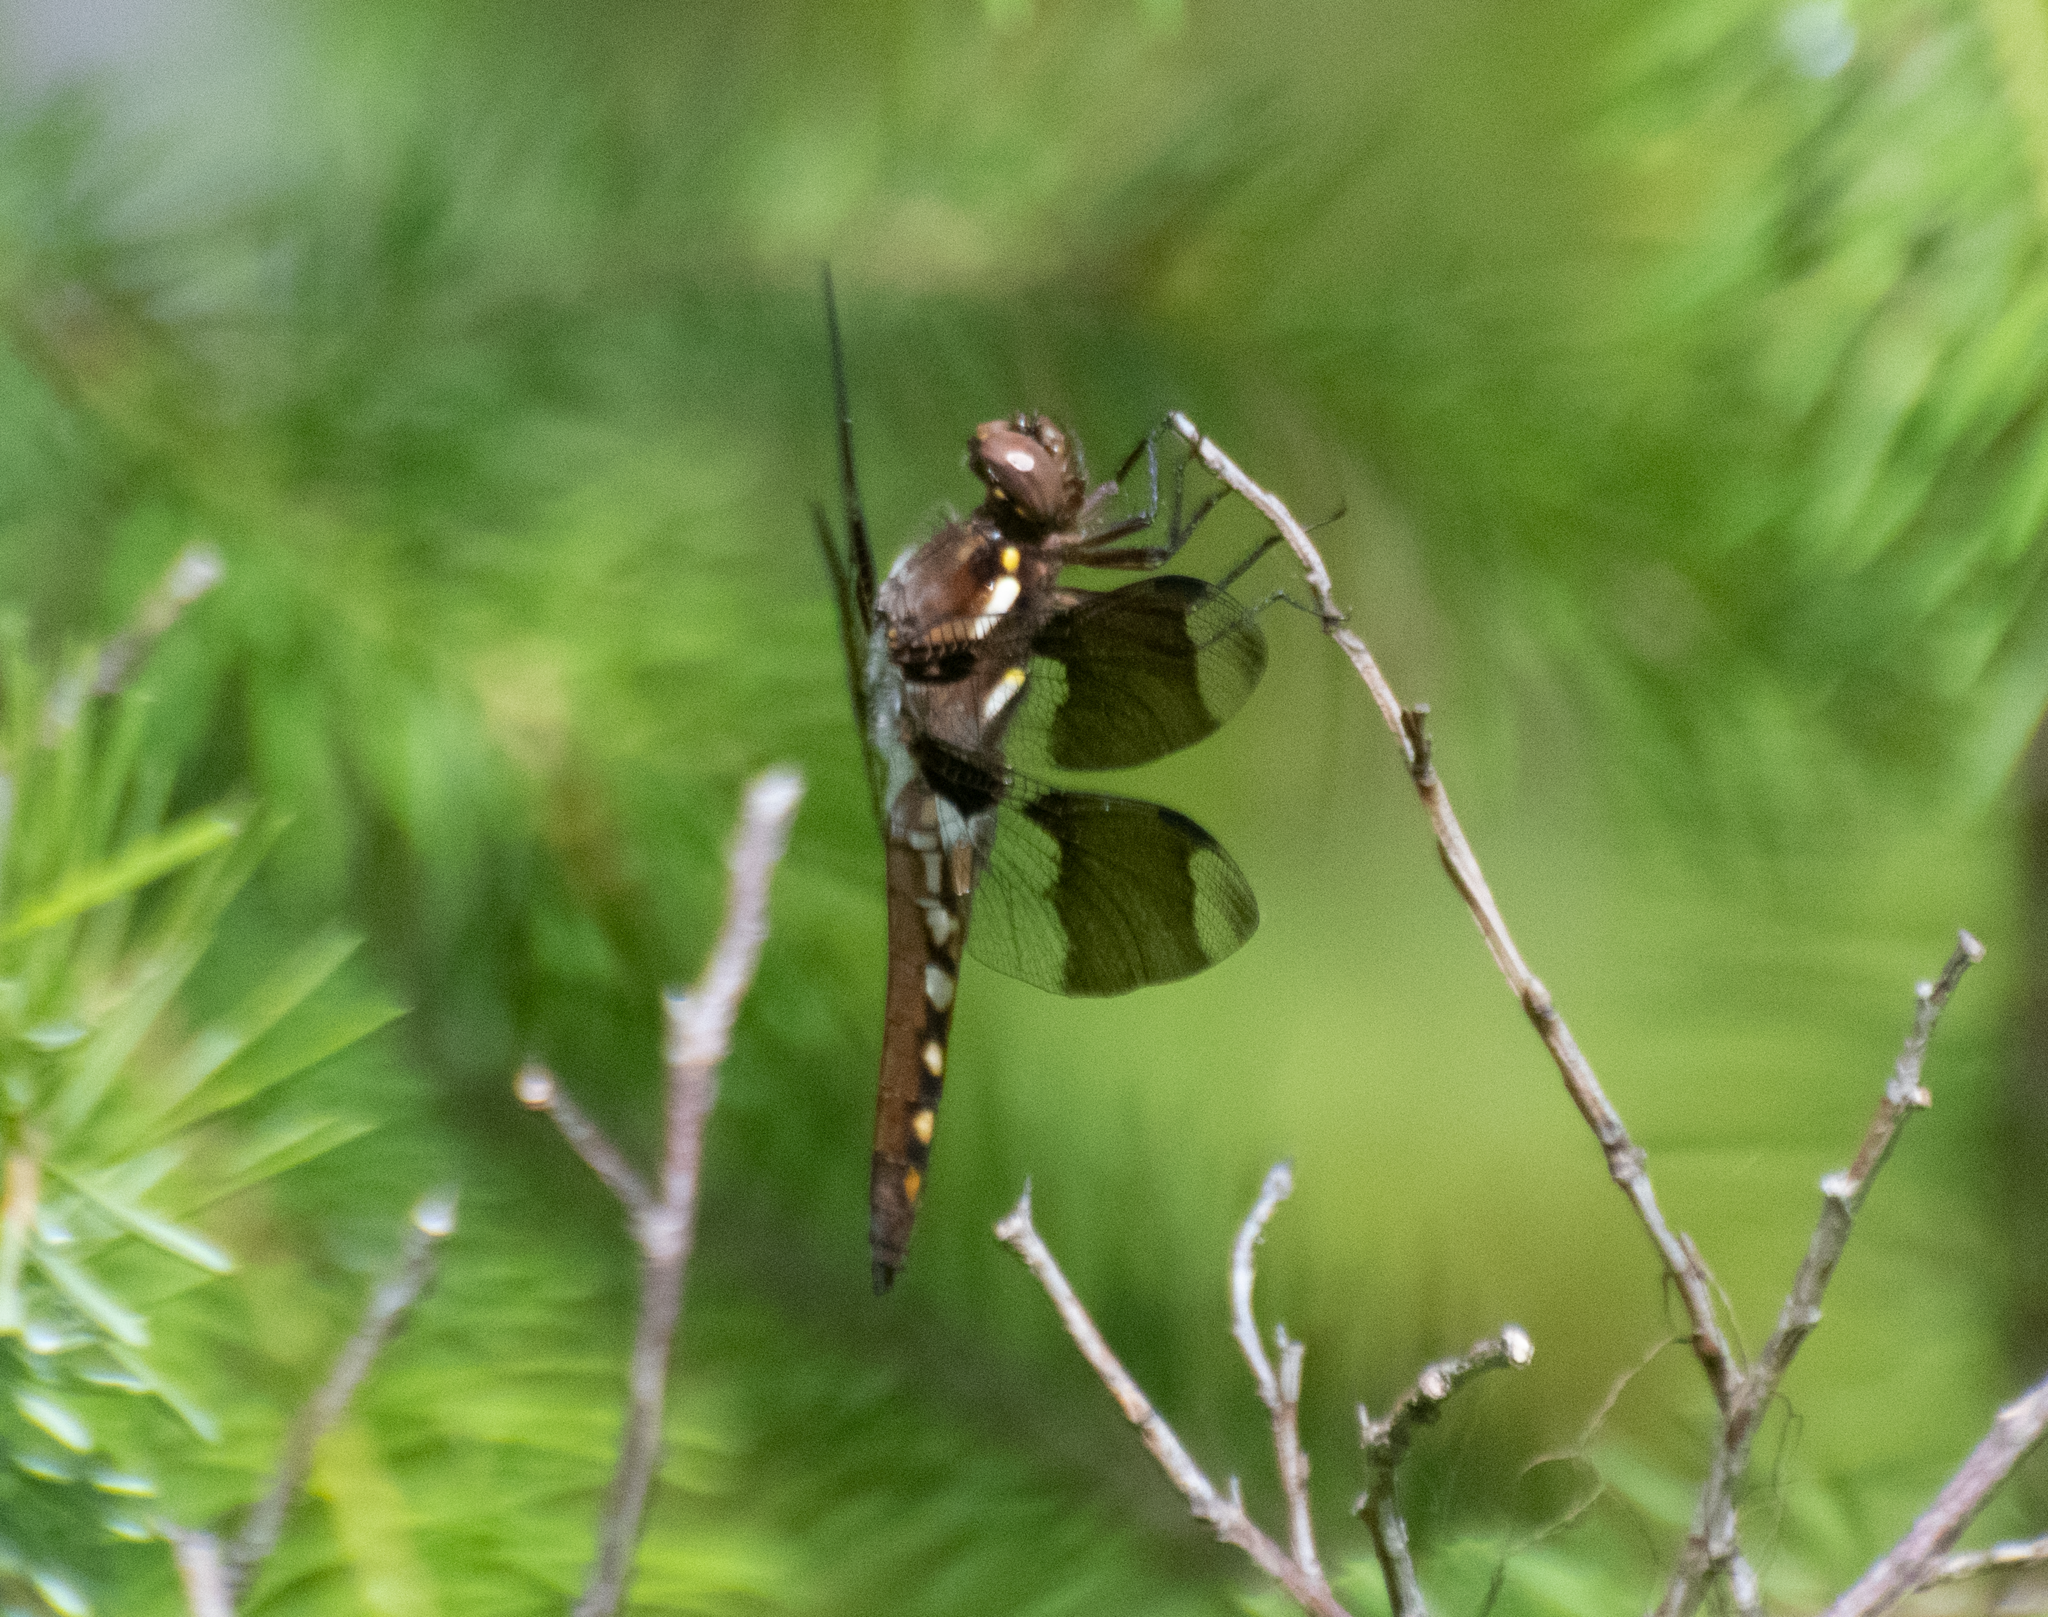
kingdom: Animalia
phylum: Arthropoda
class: Insecta
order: Odonata
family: Libellulidae
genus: Plathemis
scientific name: Plathemis lydia
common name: Common whitetail
